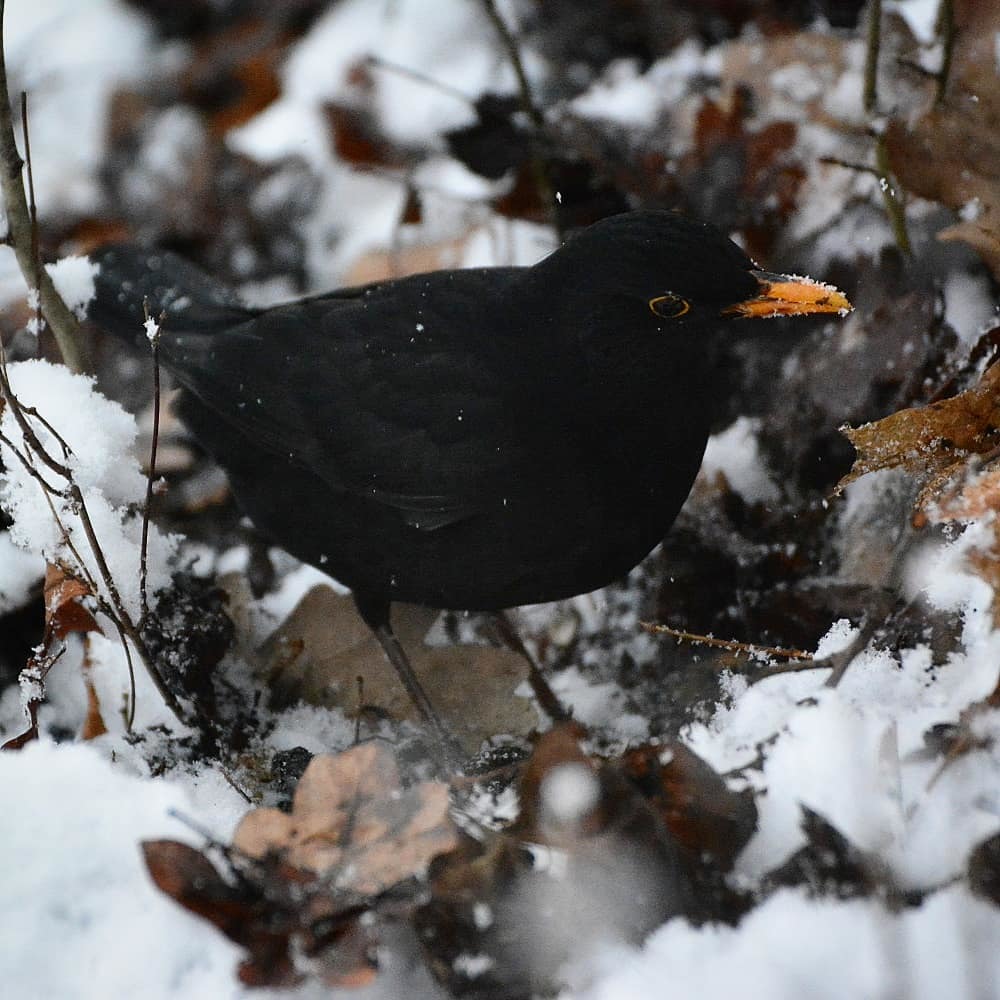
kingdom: Animalia
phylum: Chordata
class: Aves
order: Passeriformes
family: Turdidae
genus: Turdus
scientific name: Turdus merula
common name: Common blackbird
